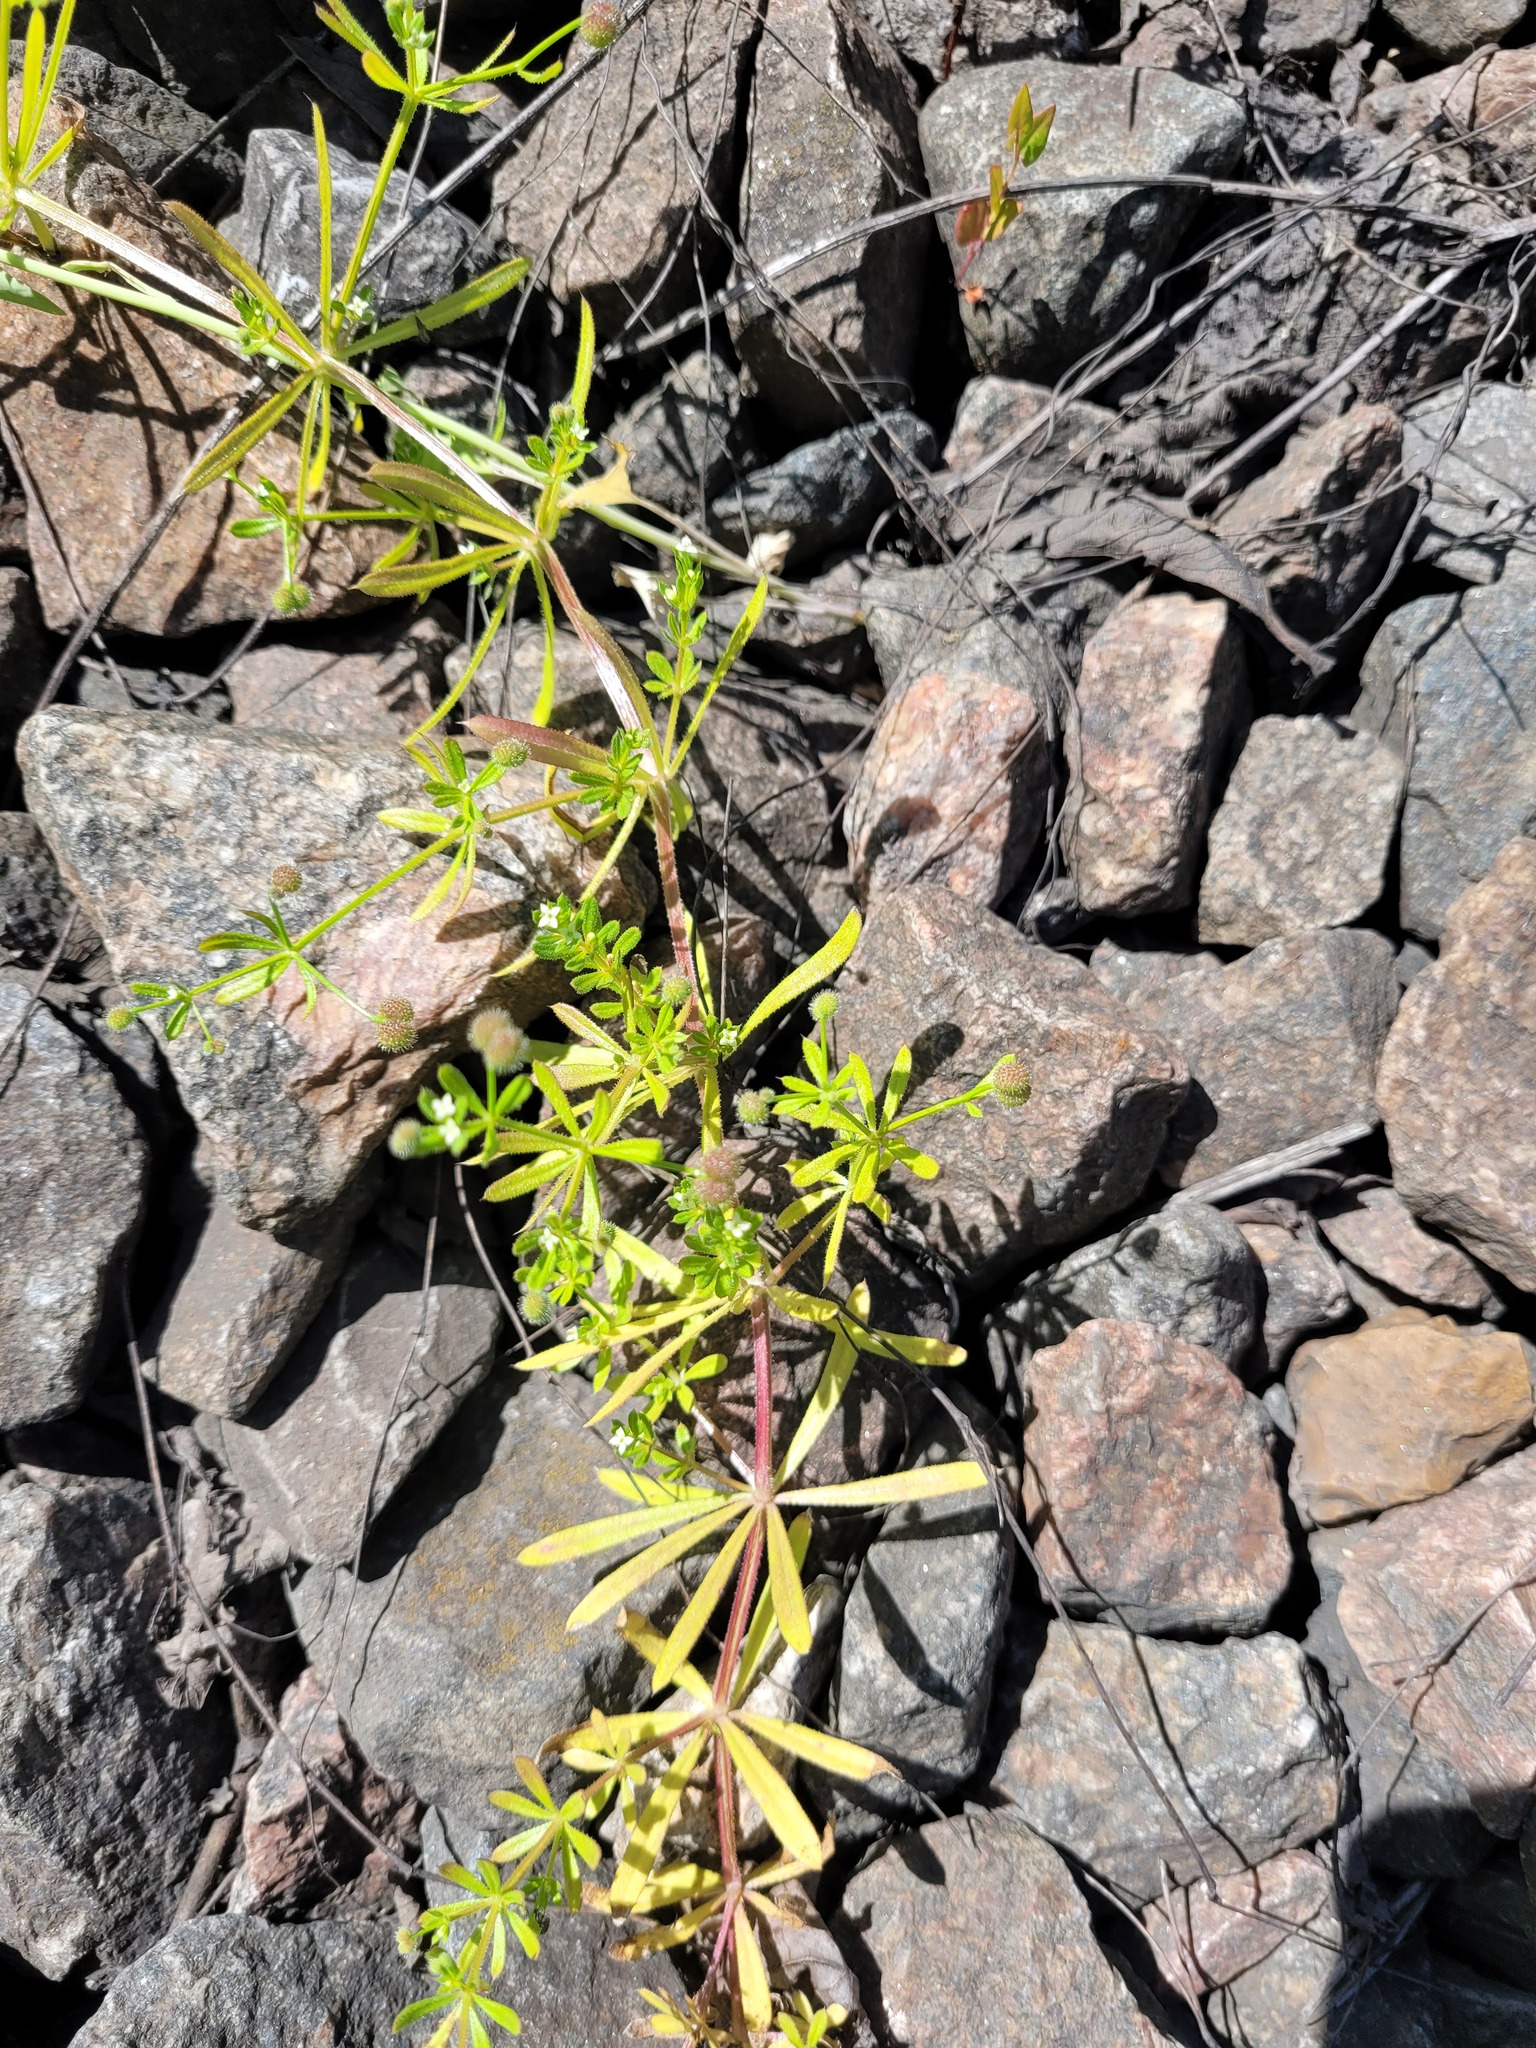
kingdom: Plantae
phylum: Tracheophyta
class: Magnoliopsida
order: Gentianales
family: Rubiaceae
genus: Galium
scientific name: Galium aparine
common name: Cleavers
